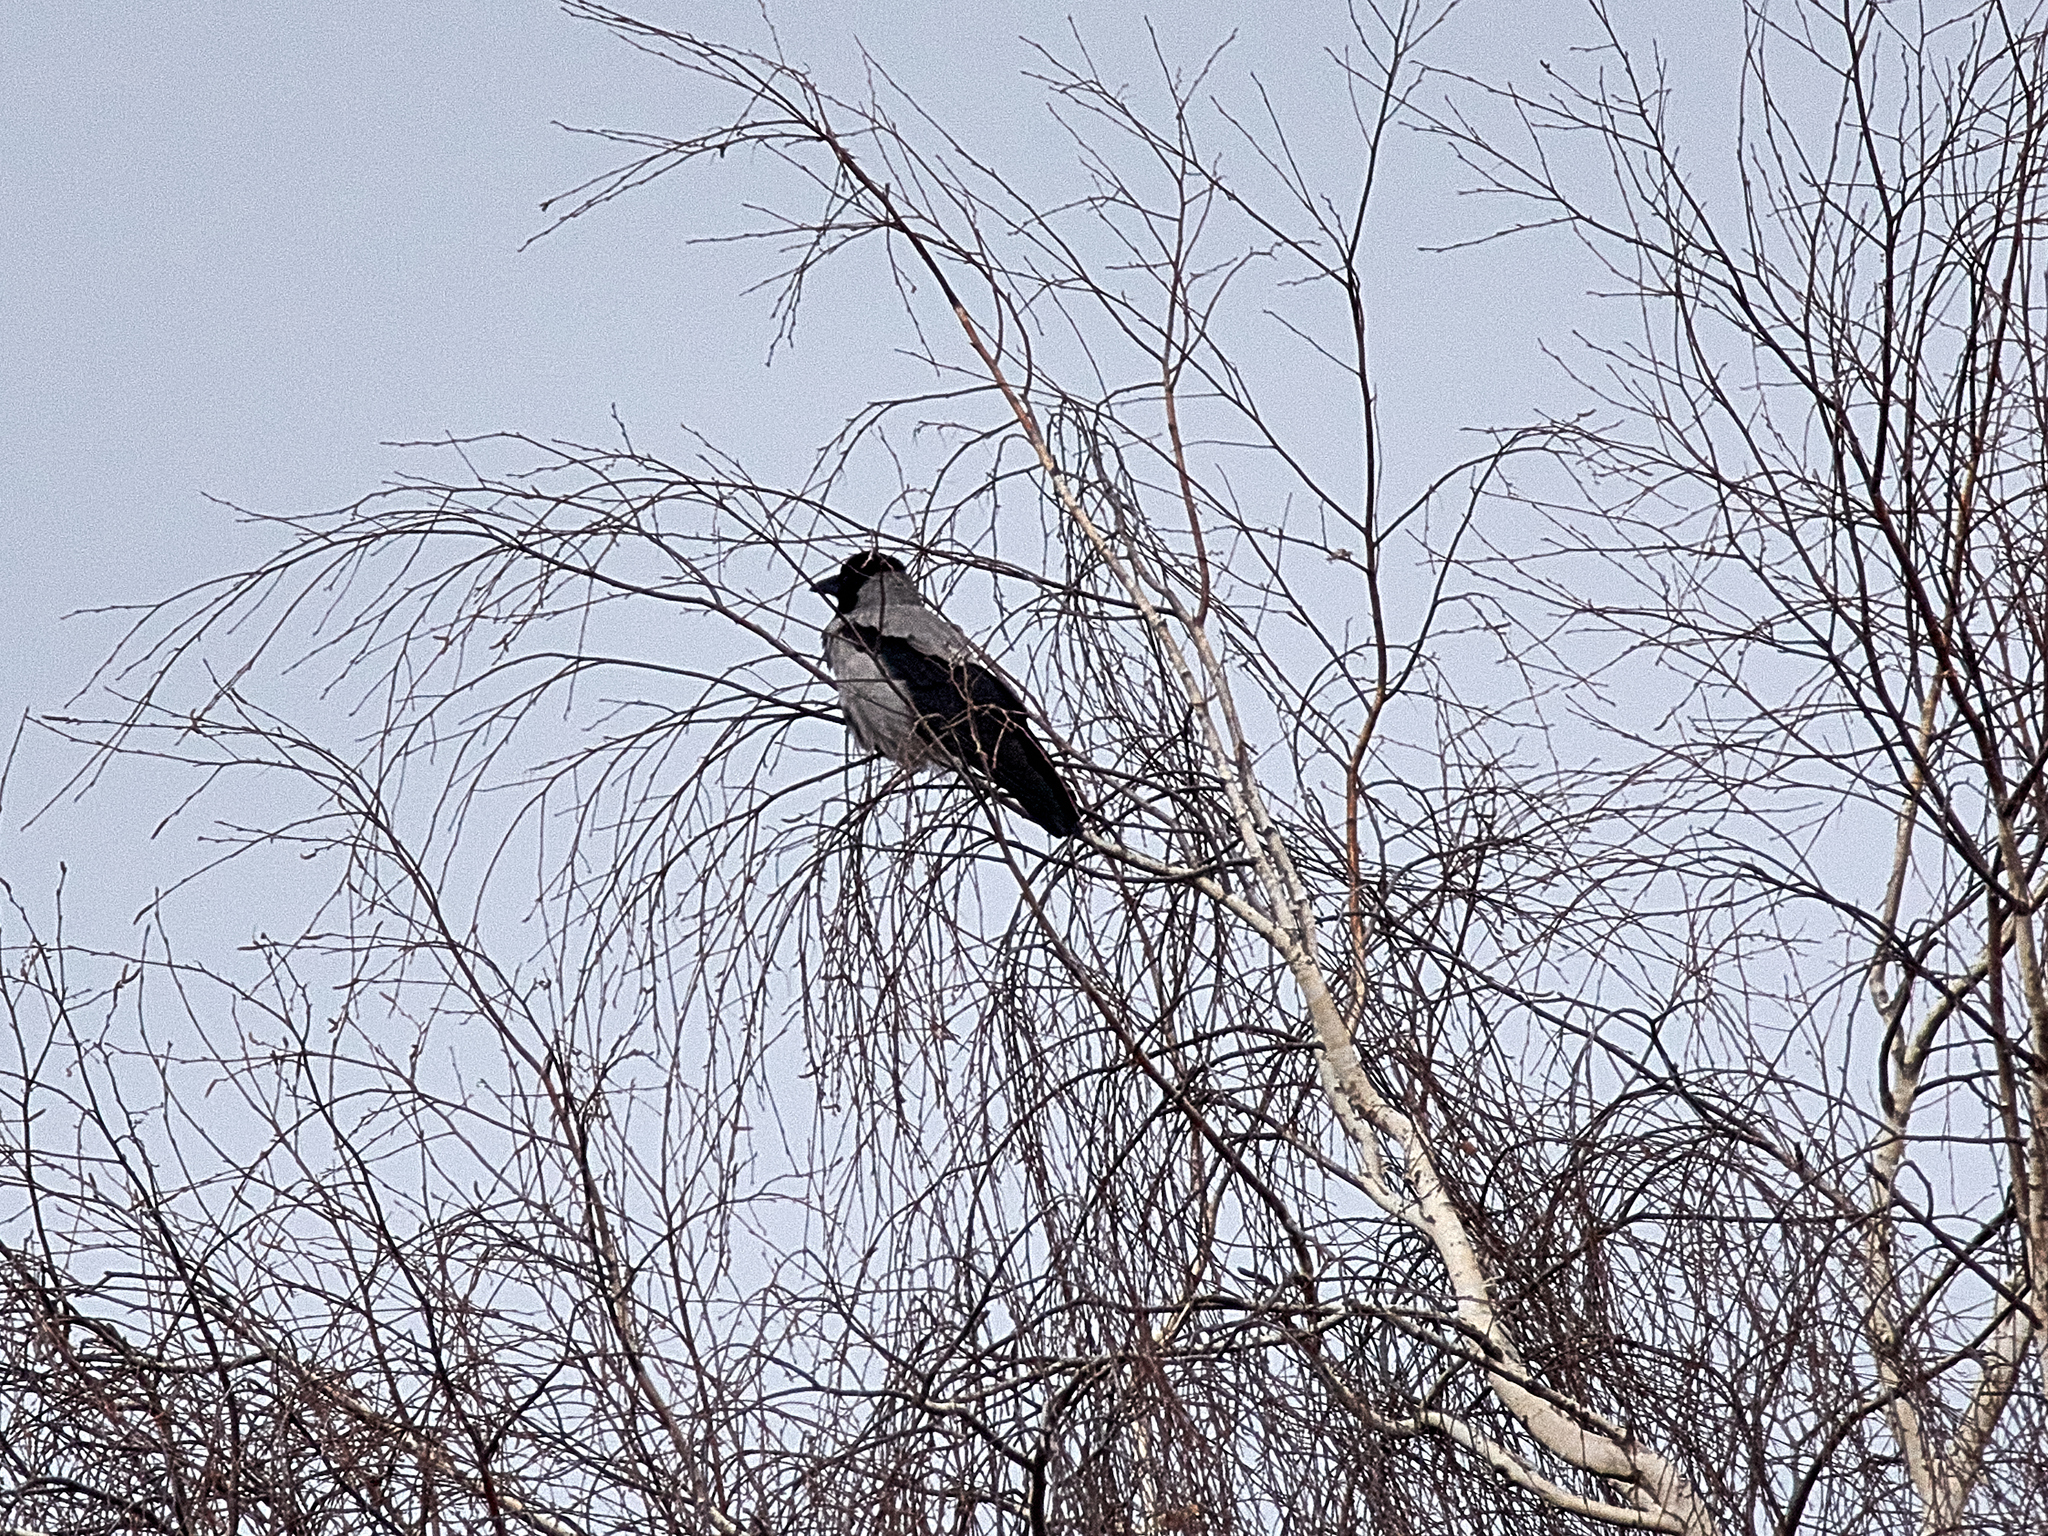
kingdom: Animalia
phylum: Chordata
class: Aves
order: Passeriformes
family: Corvidae
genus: Corvus
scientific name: Corvus cornix
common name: Hooded crow
